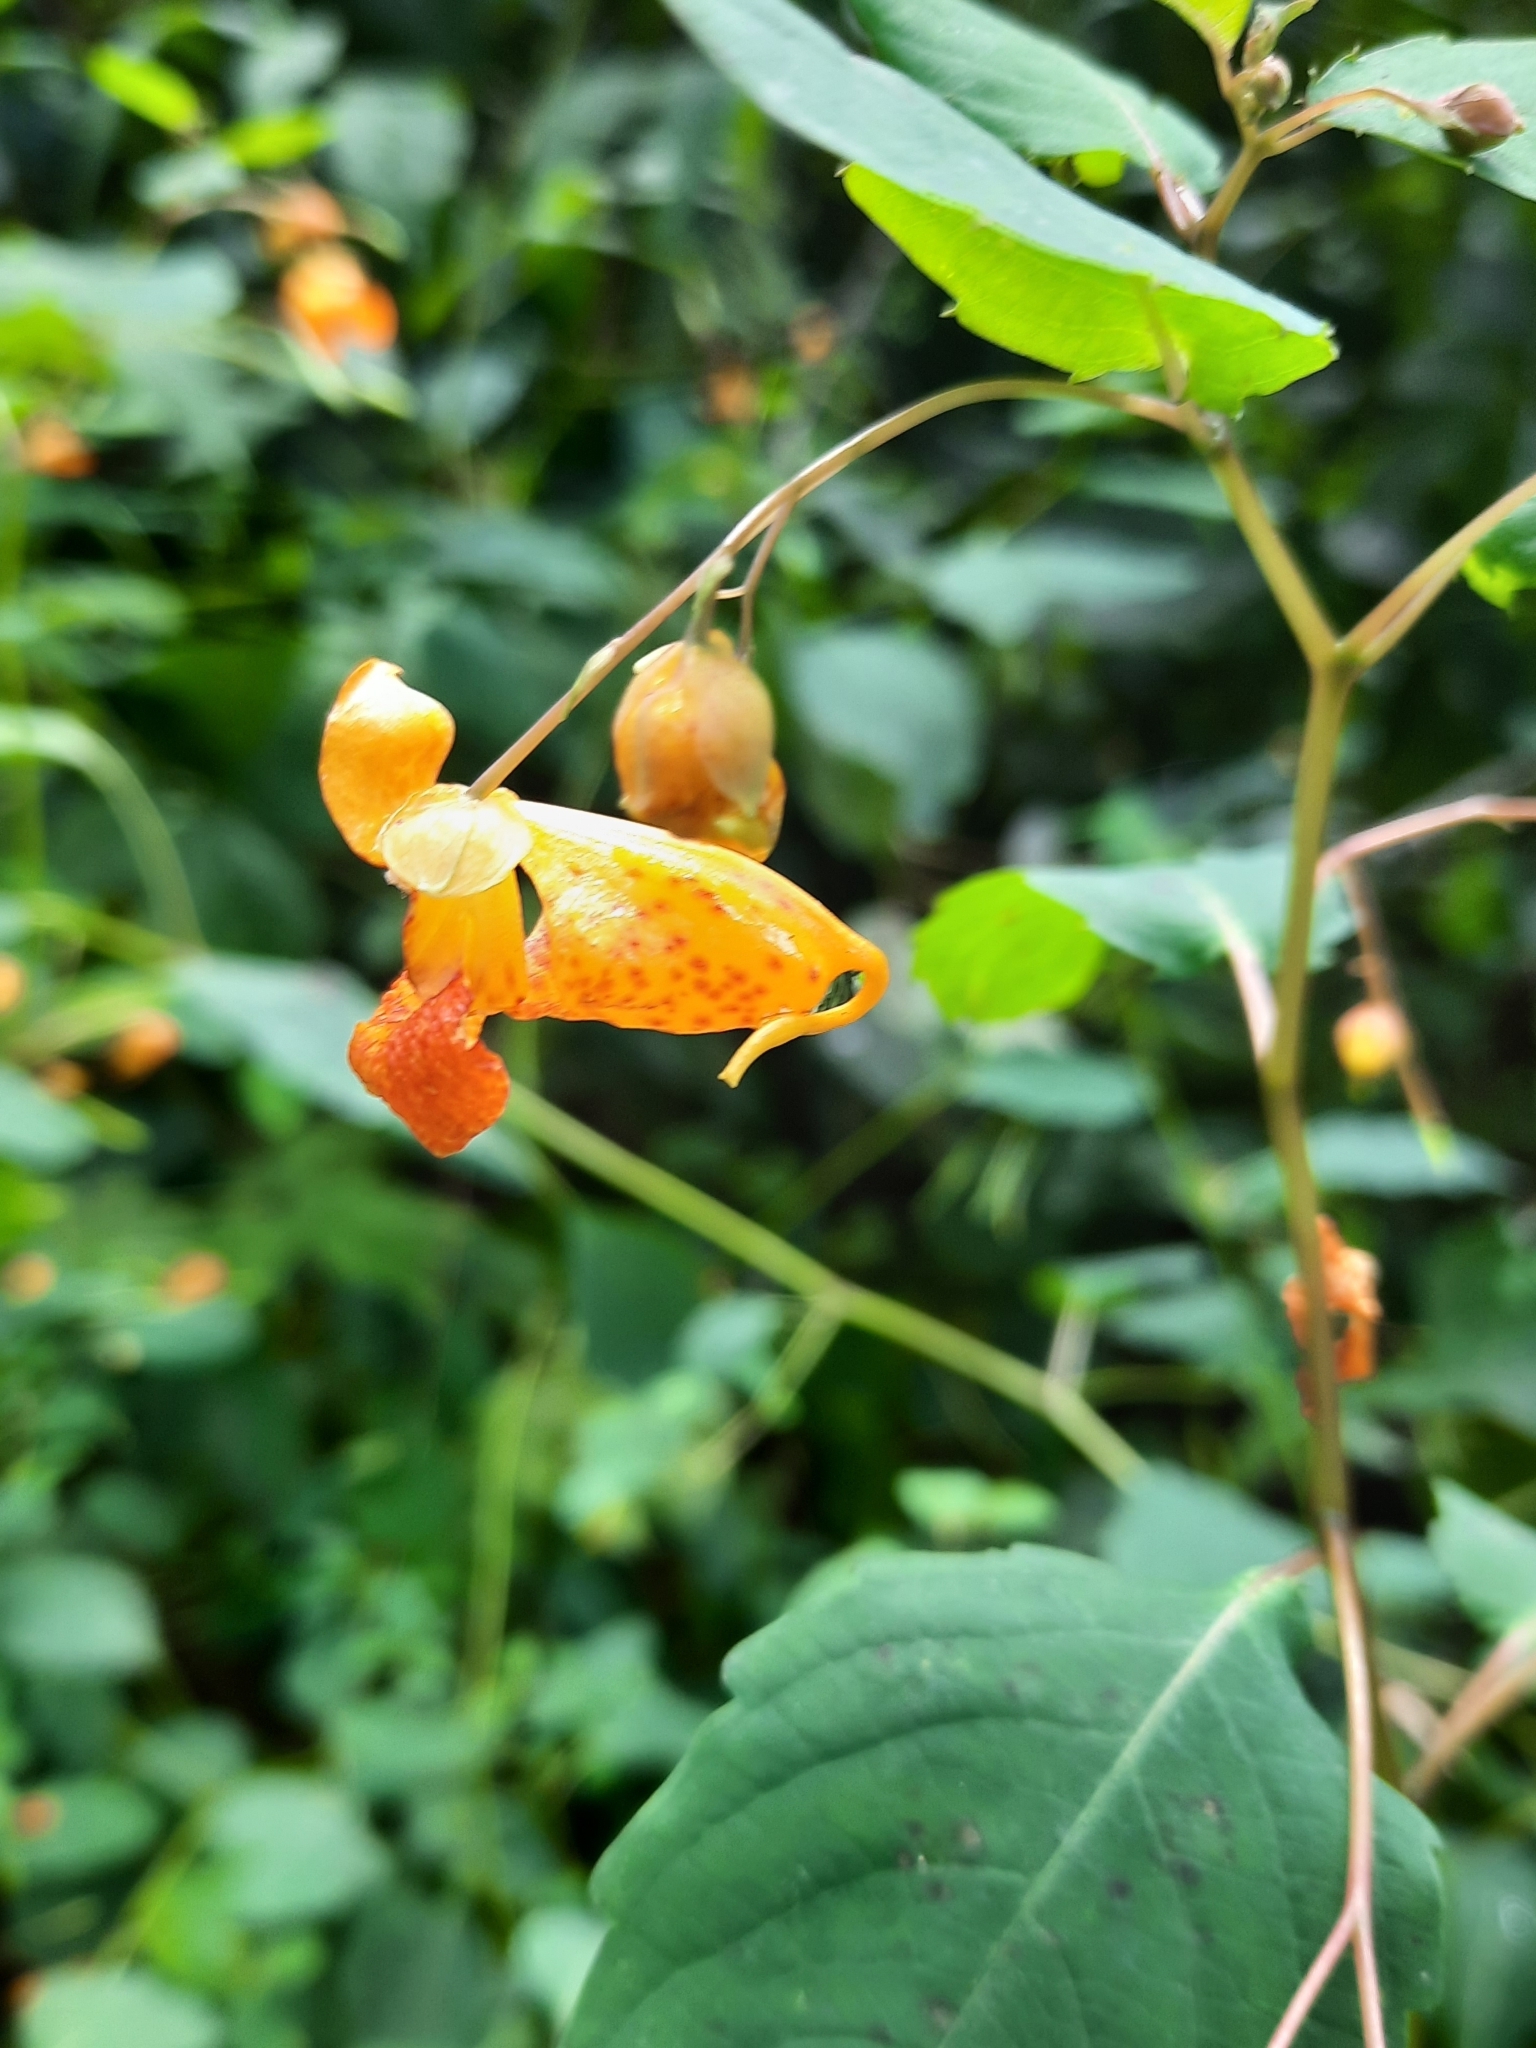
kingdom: Plantae
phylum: Tracheophyta
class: Magnoliopsida
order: Ericales
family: Balsaminaceae
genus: Impatiens
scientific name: Impatiens capensis
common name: Orange balsam
